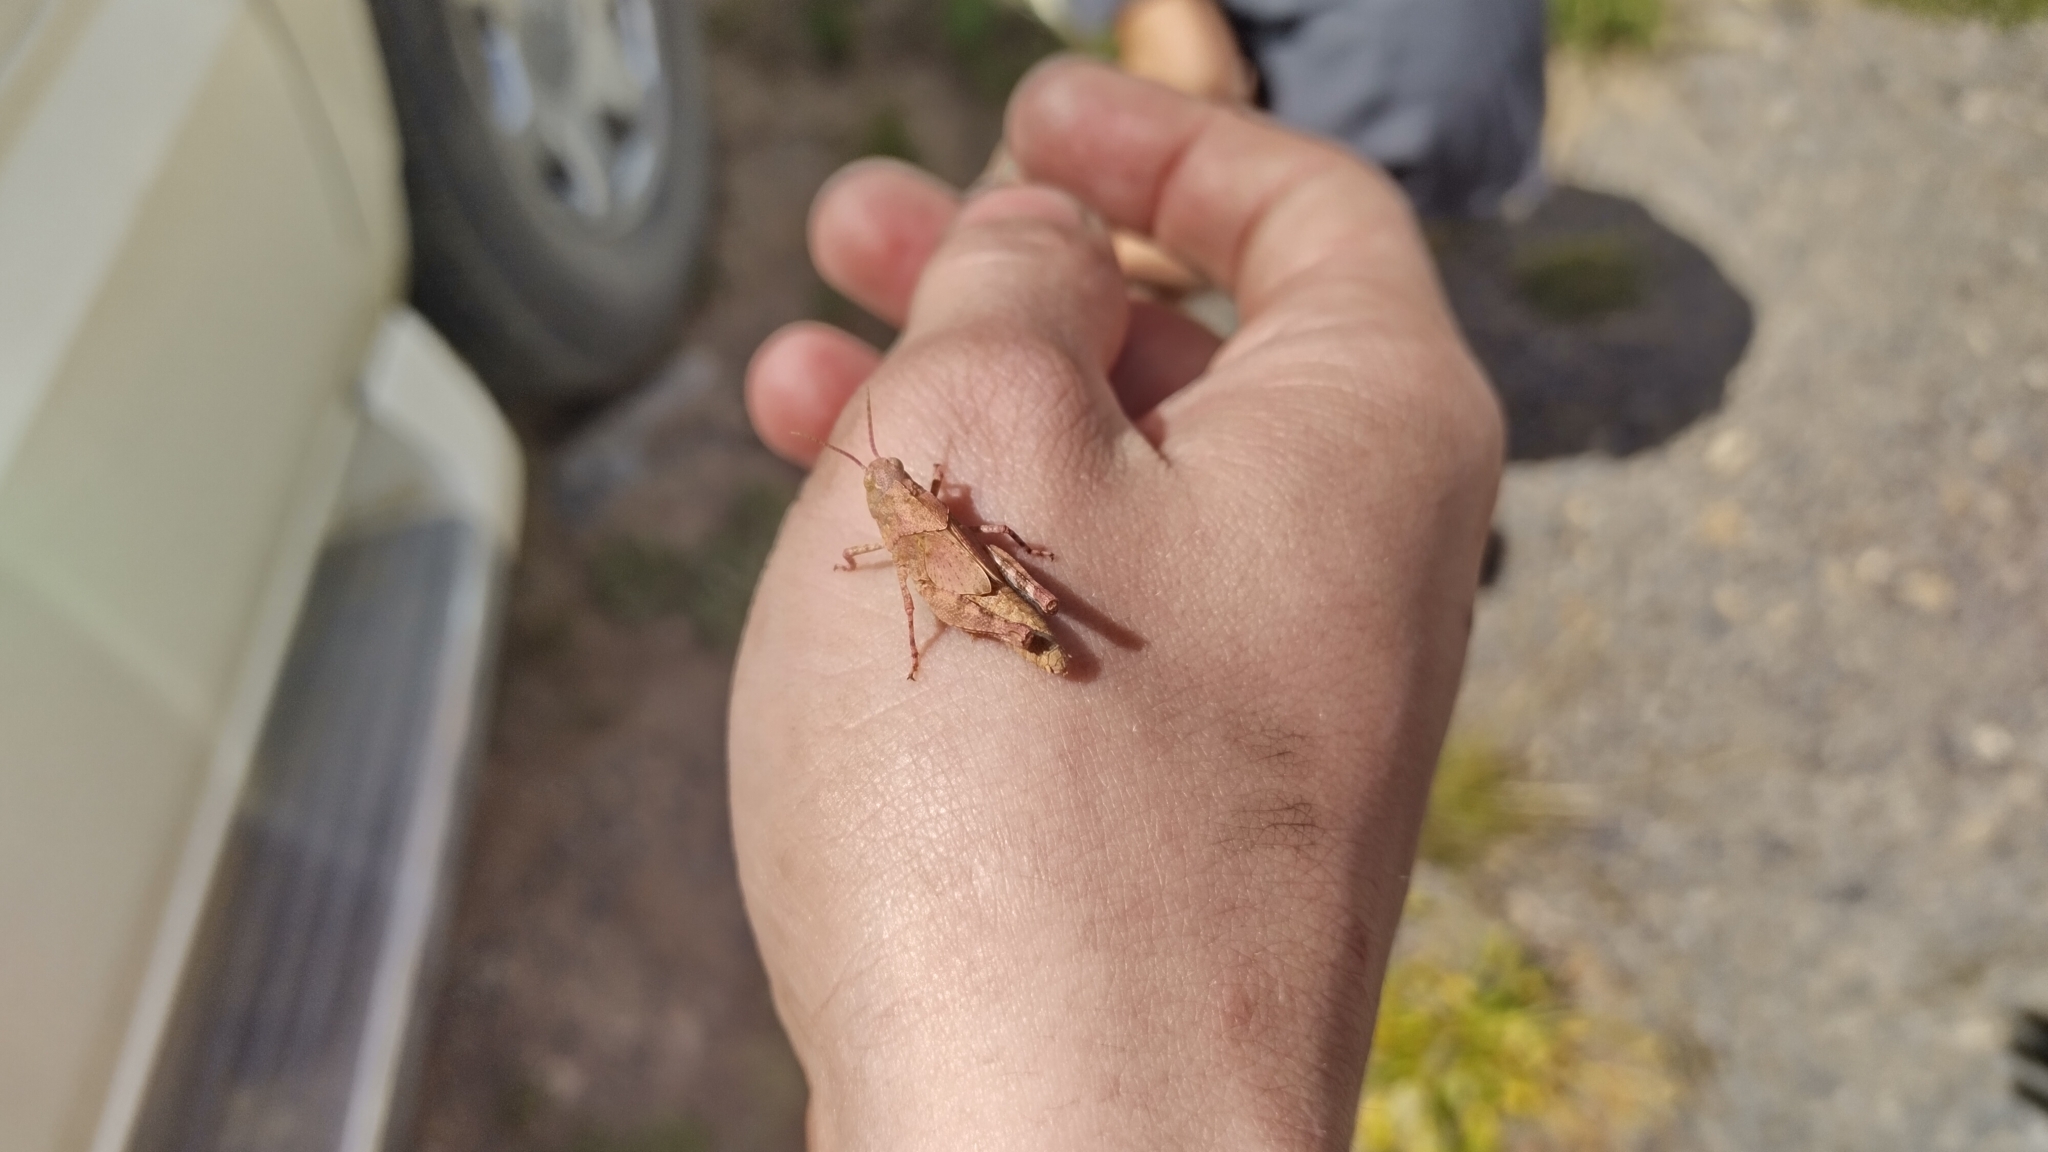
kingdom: Animalia
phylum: Arthropoda
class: Insecta
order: Orthoptera
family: Acrididae
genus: Dissosteira
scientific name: Dissosteira carolina
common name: Carolina grasshopper
